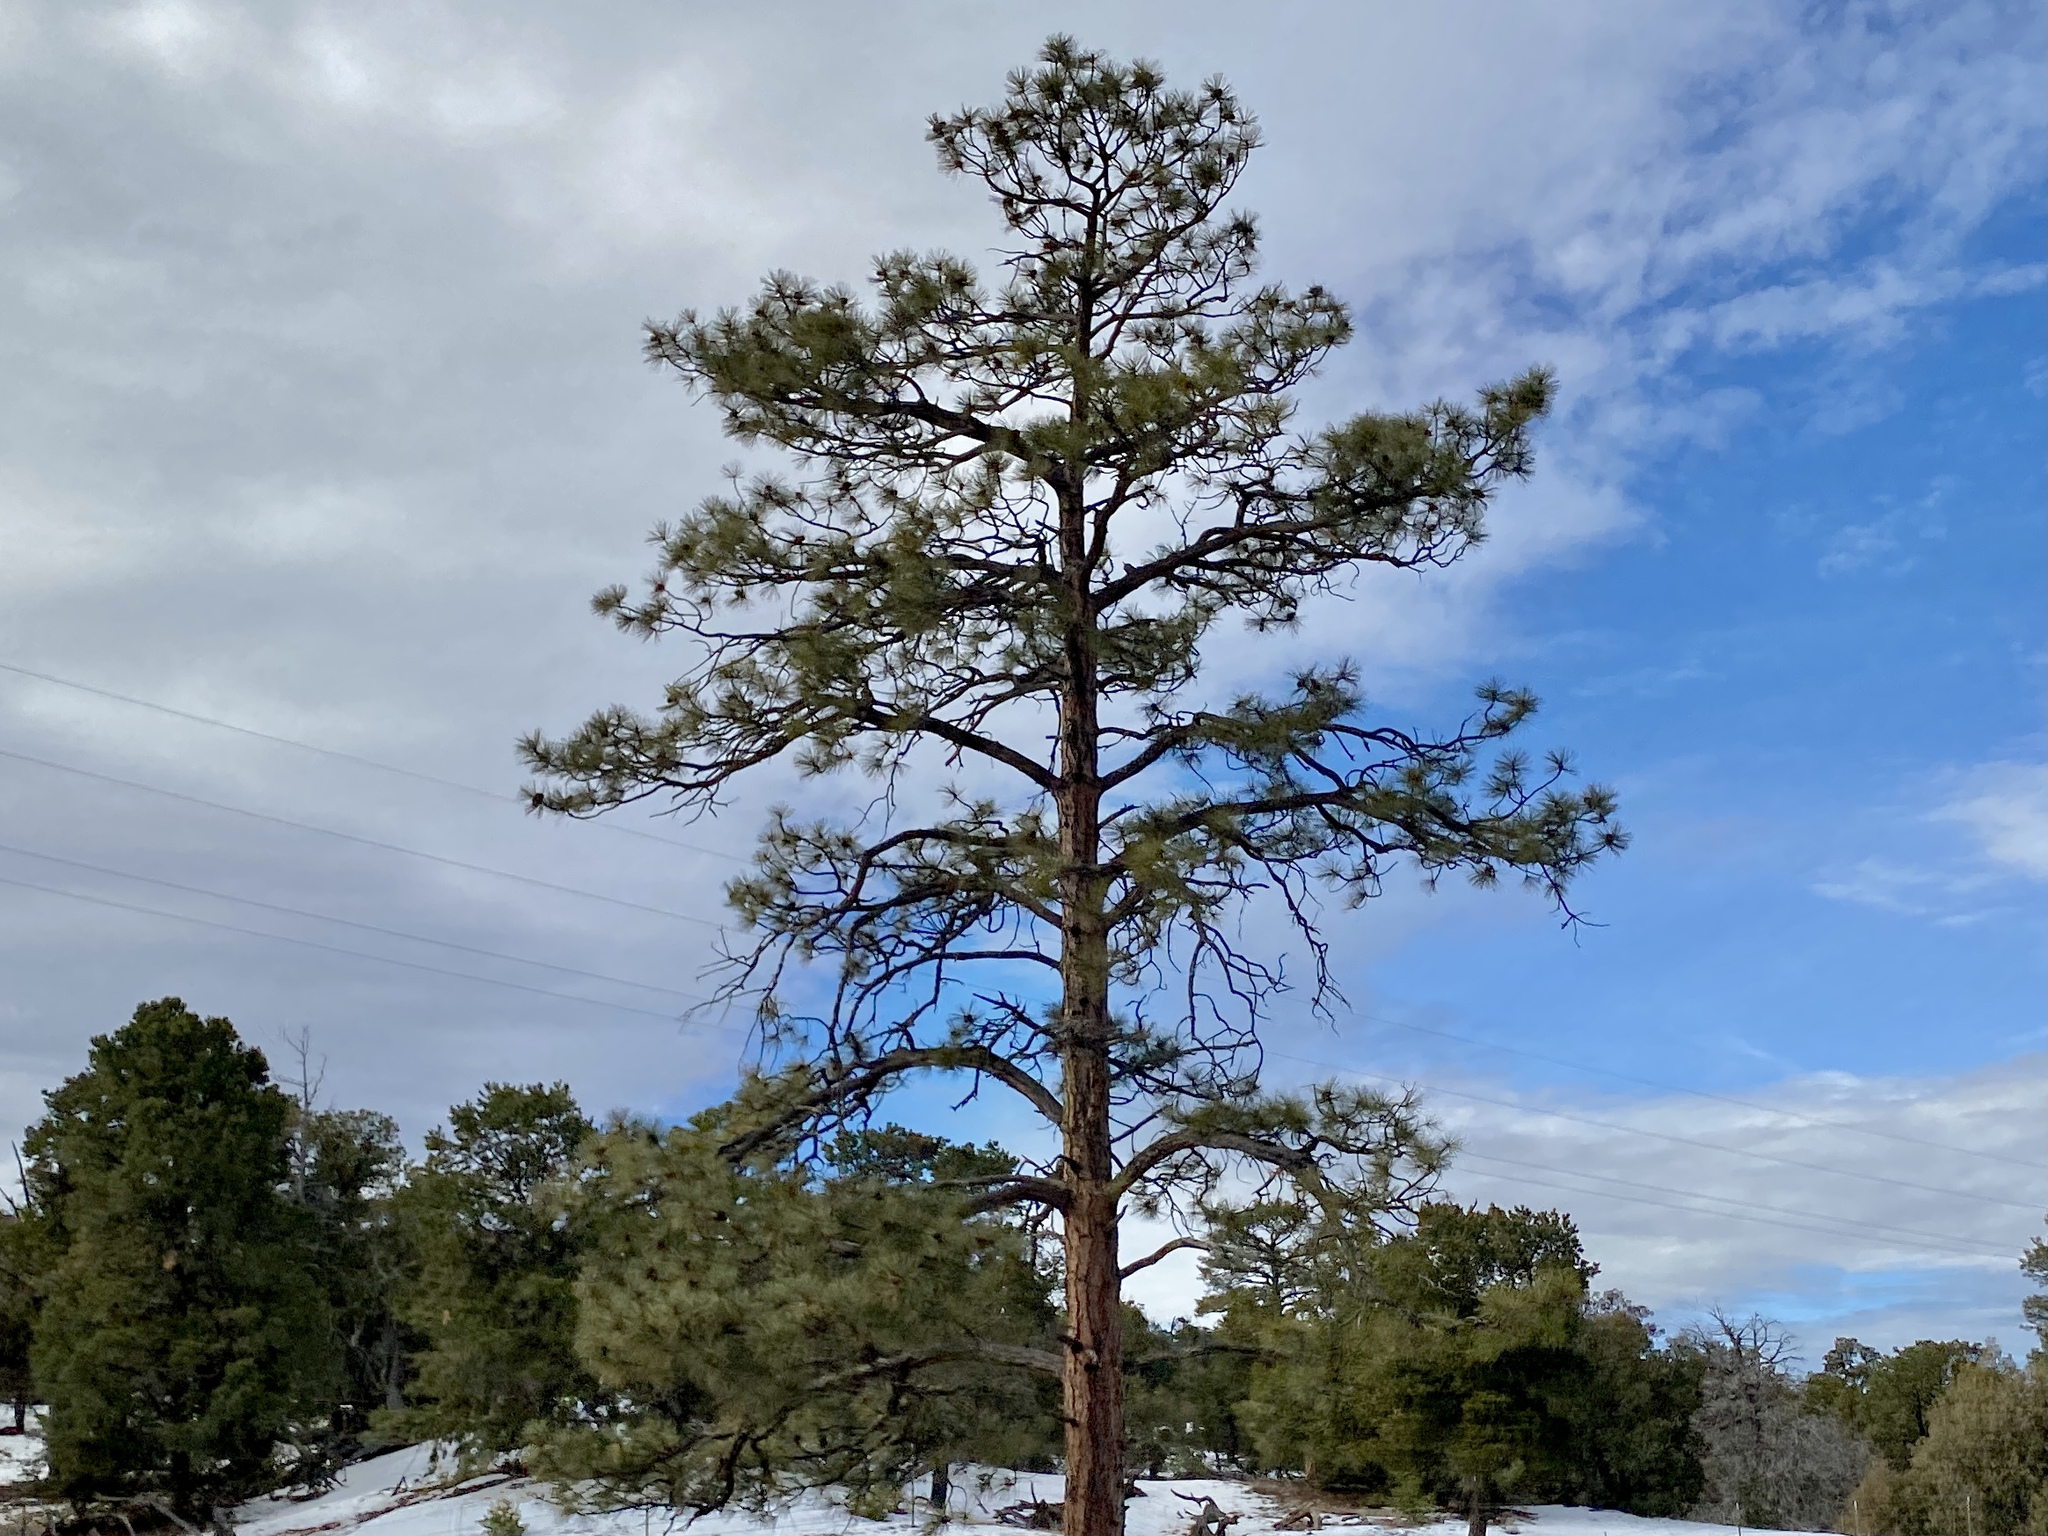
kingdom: Plantae
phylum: Tracheophyta
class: Pinopsida
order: Pinales
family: Pinaceae
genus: Pinus
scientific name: Pinus ponderosa
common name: Western yellow-pine
